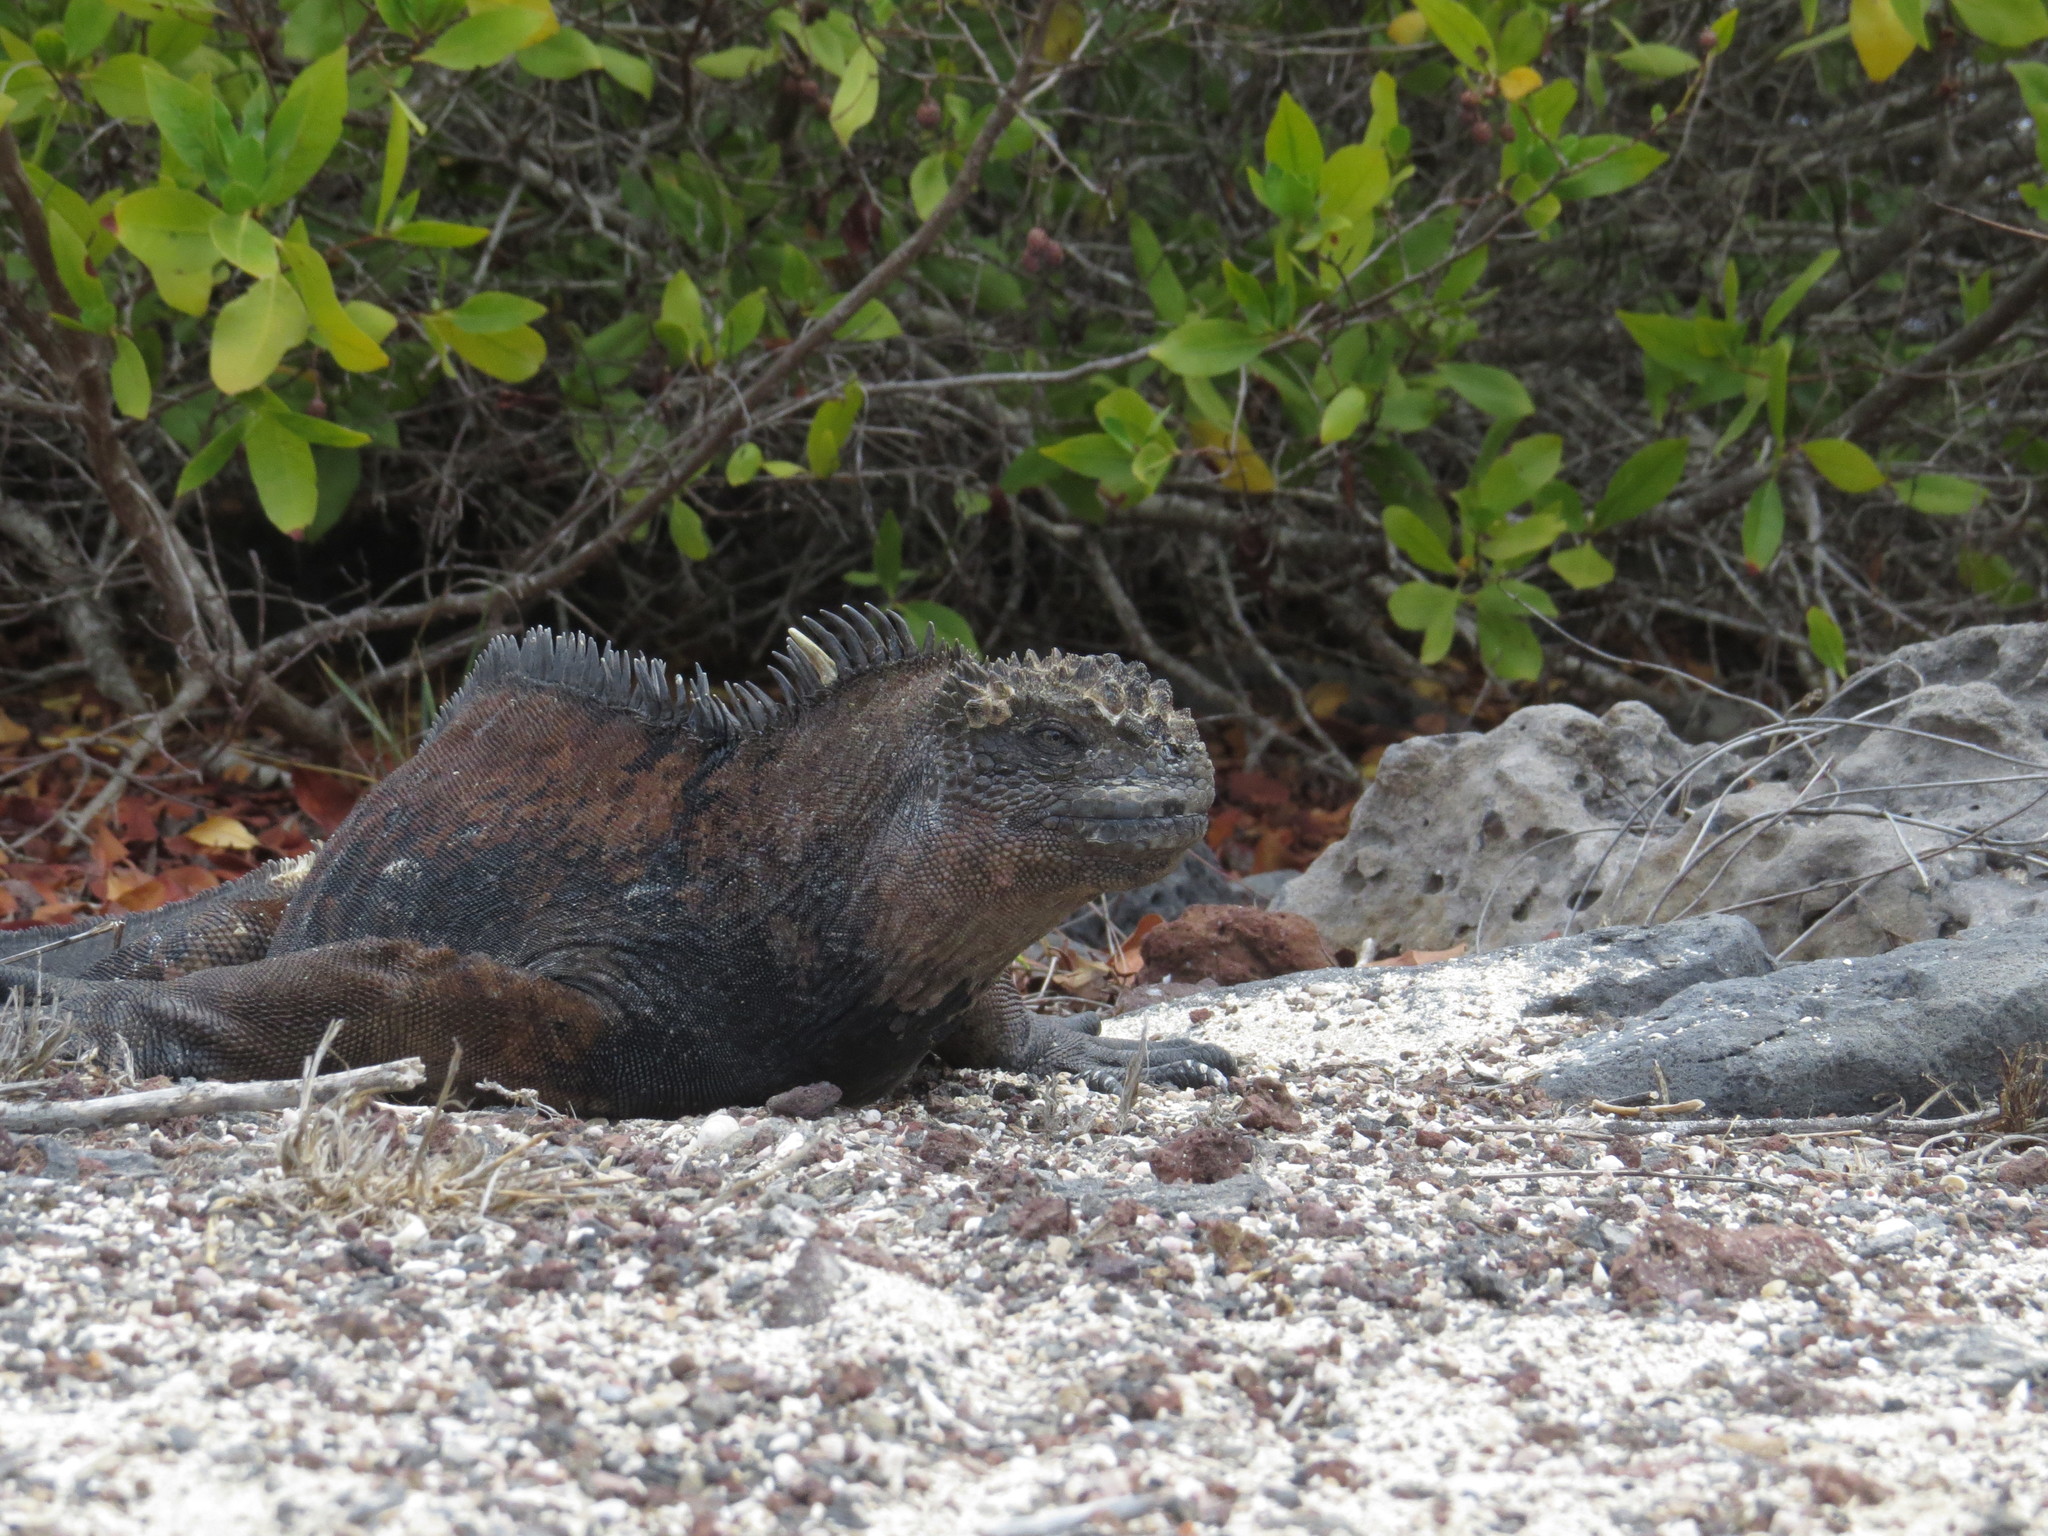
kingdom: Animalia
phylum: Chordata
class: Squamata
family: Iguanidae
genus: Amblyrhynchus
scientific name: Amblyrhynchus cristatus
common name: Marine iguana
